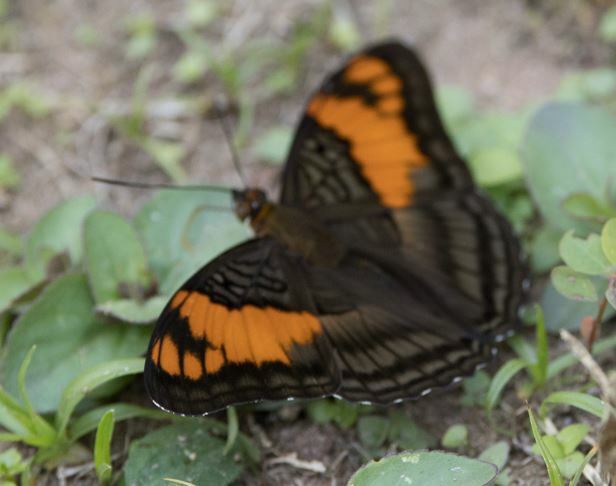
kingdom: Animalia
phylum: Arthropoda
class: Insecta
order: Lepidoptera
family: Nymphalidae
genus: Limenitis
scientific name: Limenitis mesentina
